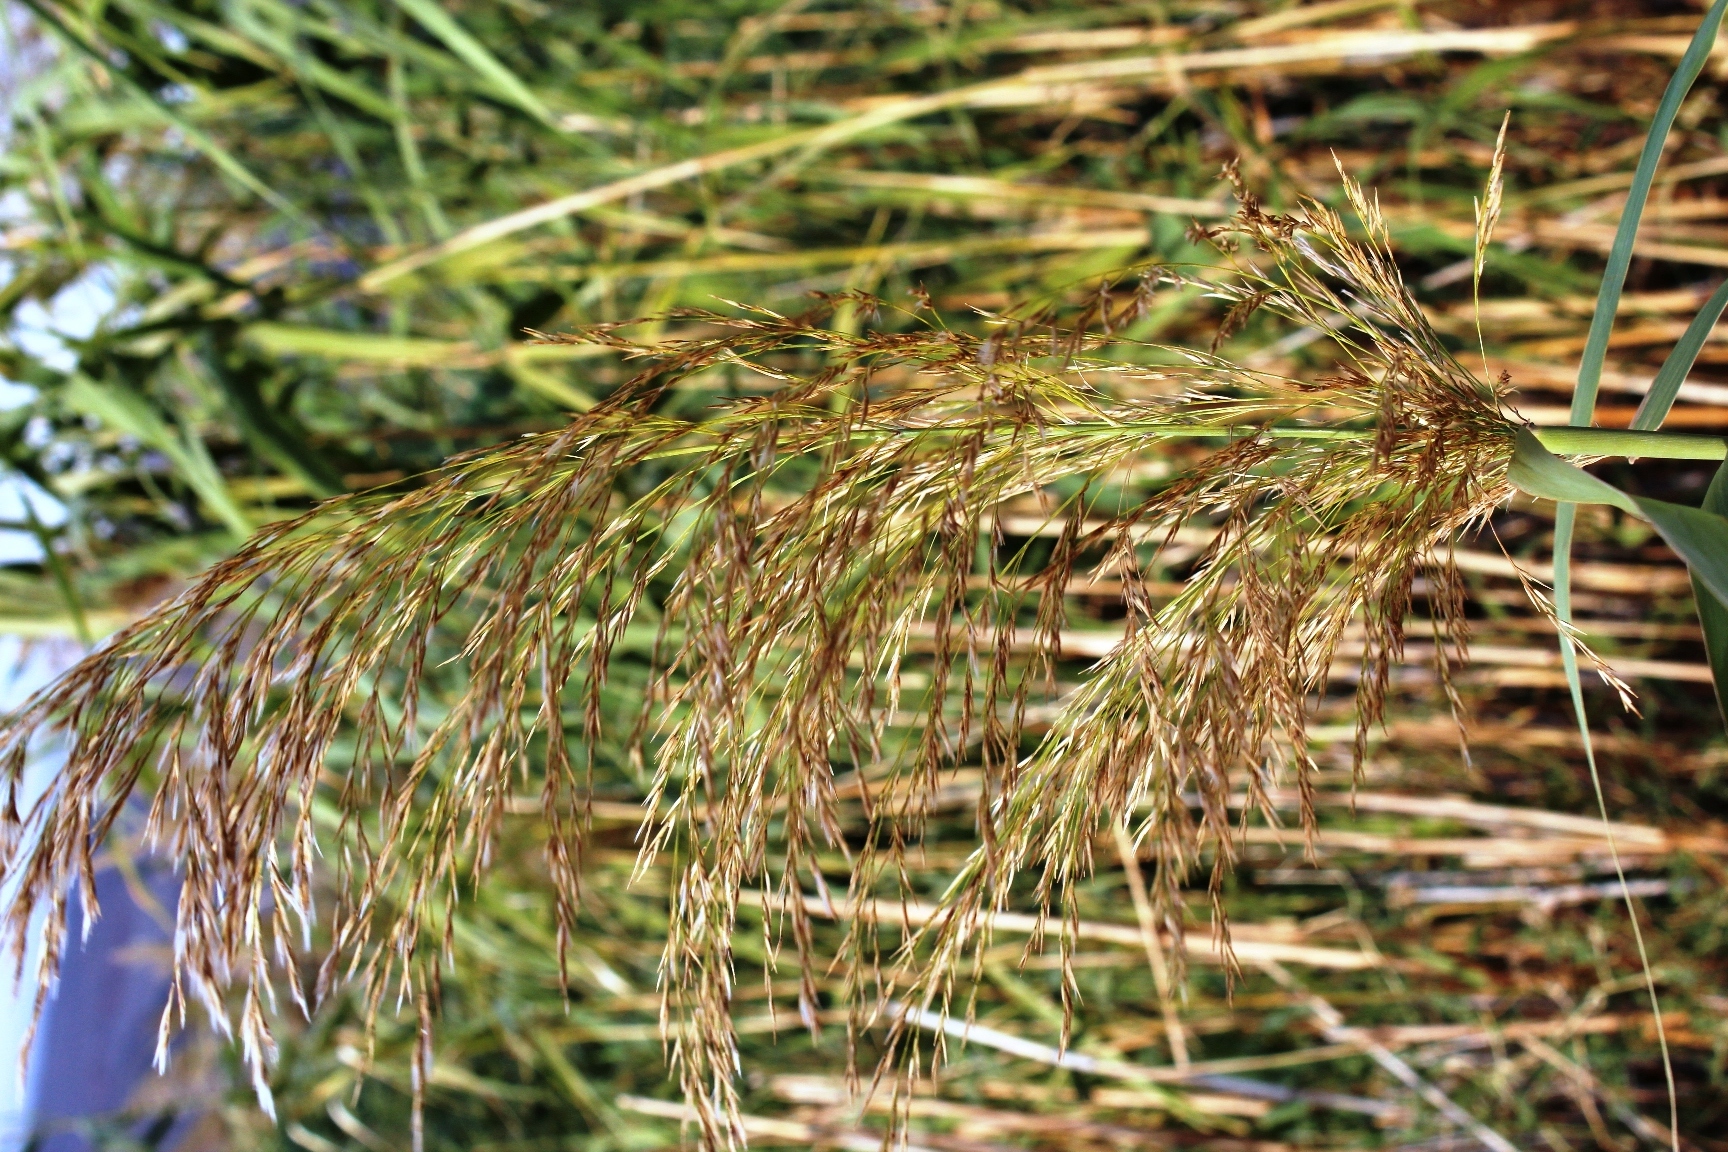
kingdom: Plantae
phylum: Tracheophyta
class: Liliopsida
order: Poales
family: Poaceae
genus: Phragmites
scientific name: Phragmites australis
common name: Common reed
